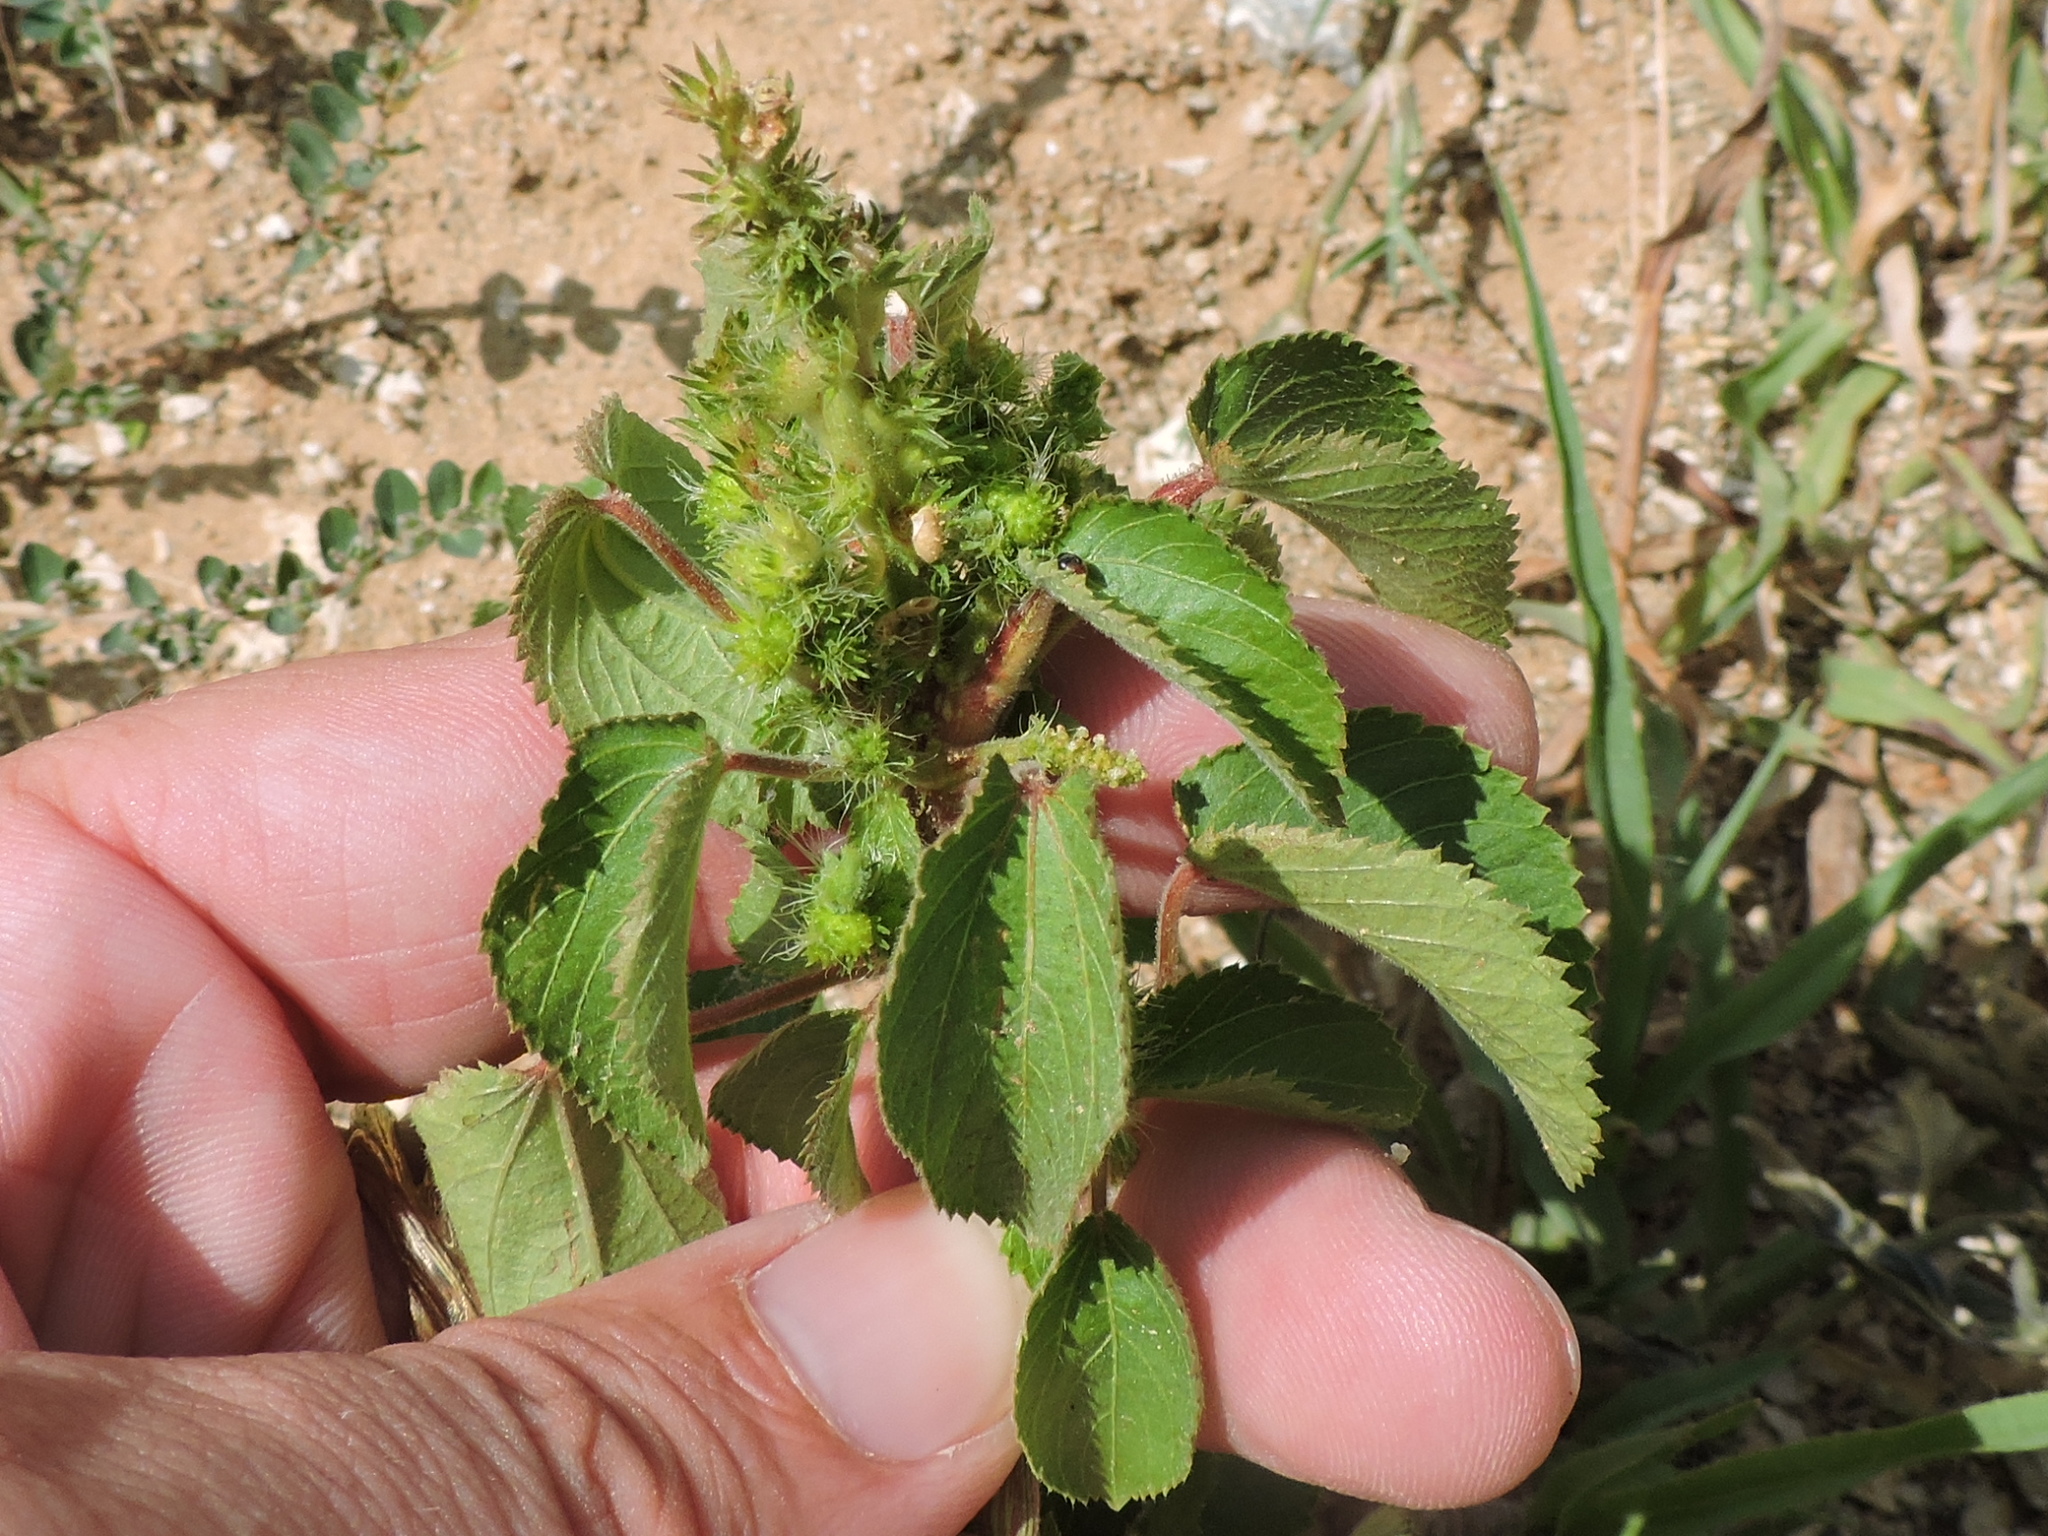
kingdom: Plantae
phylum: Tracheophyta
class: Magnoliopsida
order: Malpighiales
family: Euphorbiaceae
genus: Acalypha
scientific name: Acalypha ostryifolia
